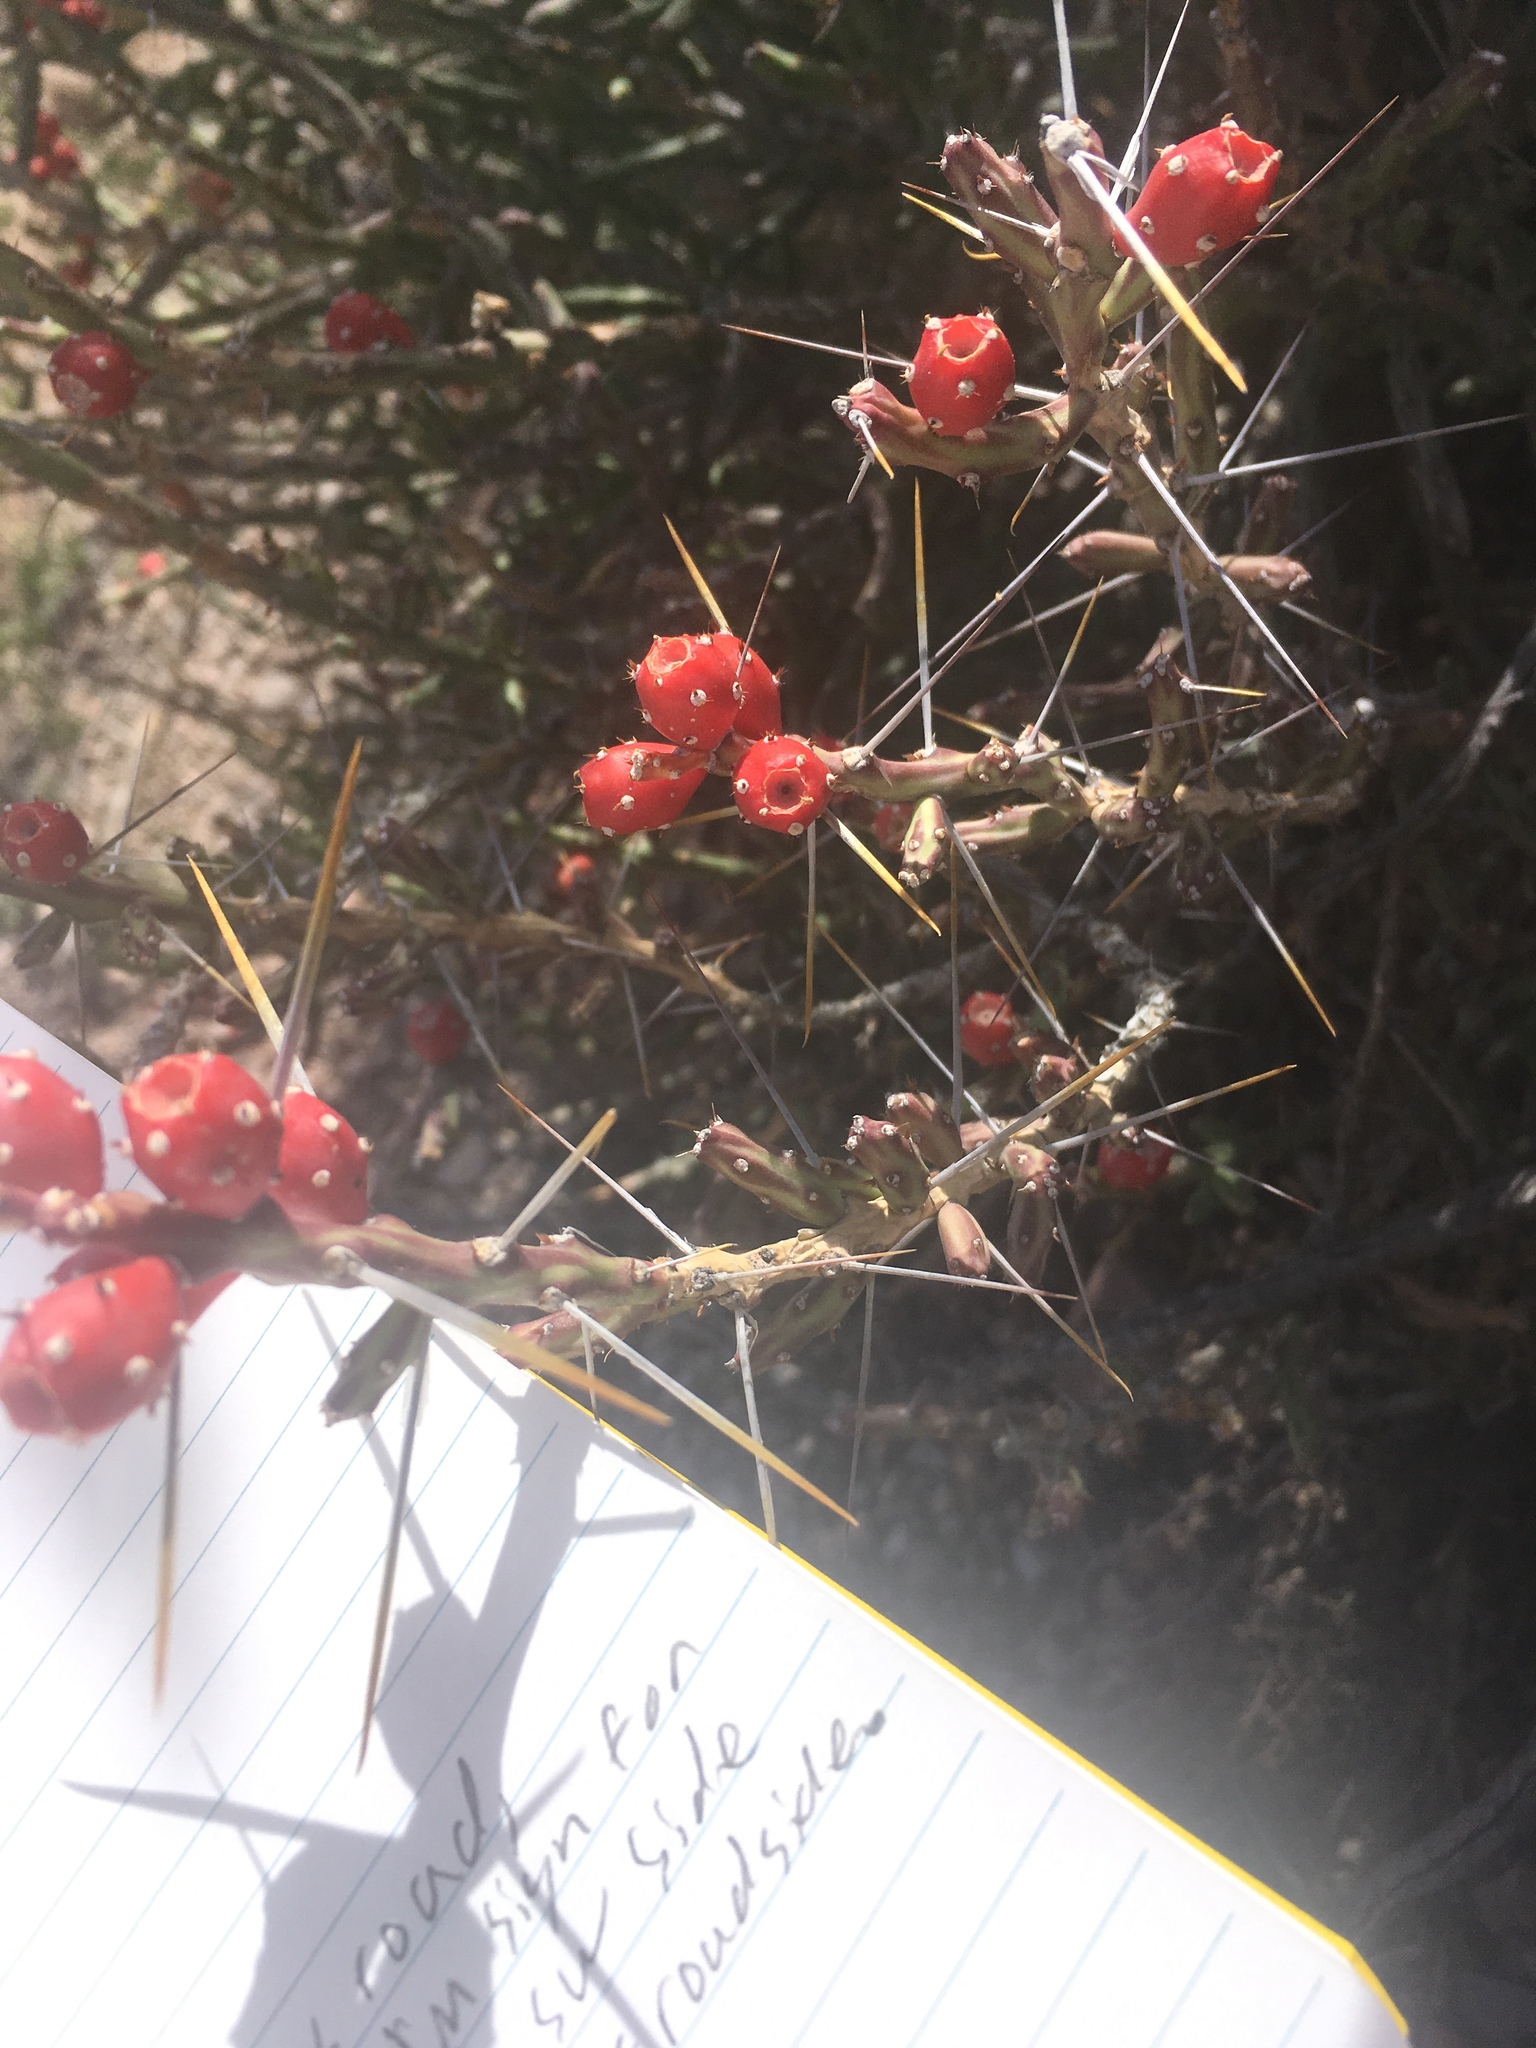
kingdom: Plantae
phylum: Tracheophyta
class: Magnoliopsida
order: Caryophyllales
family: Cactaceae
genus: Cylindropuntia
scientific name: Cylindropuntia leptocaulis
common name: Christmas cactus
